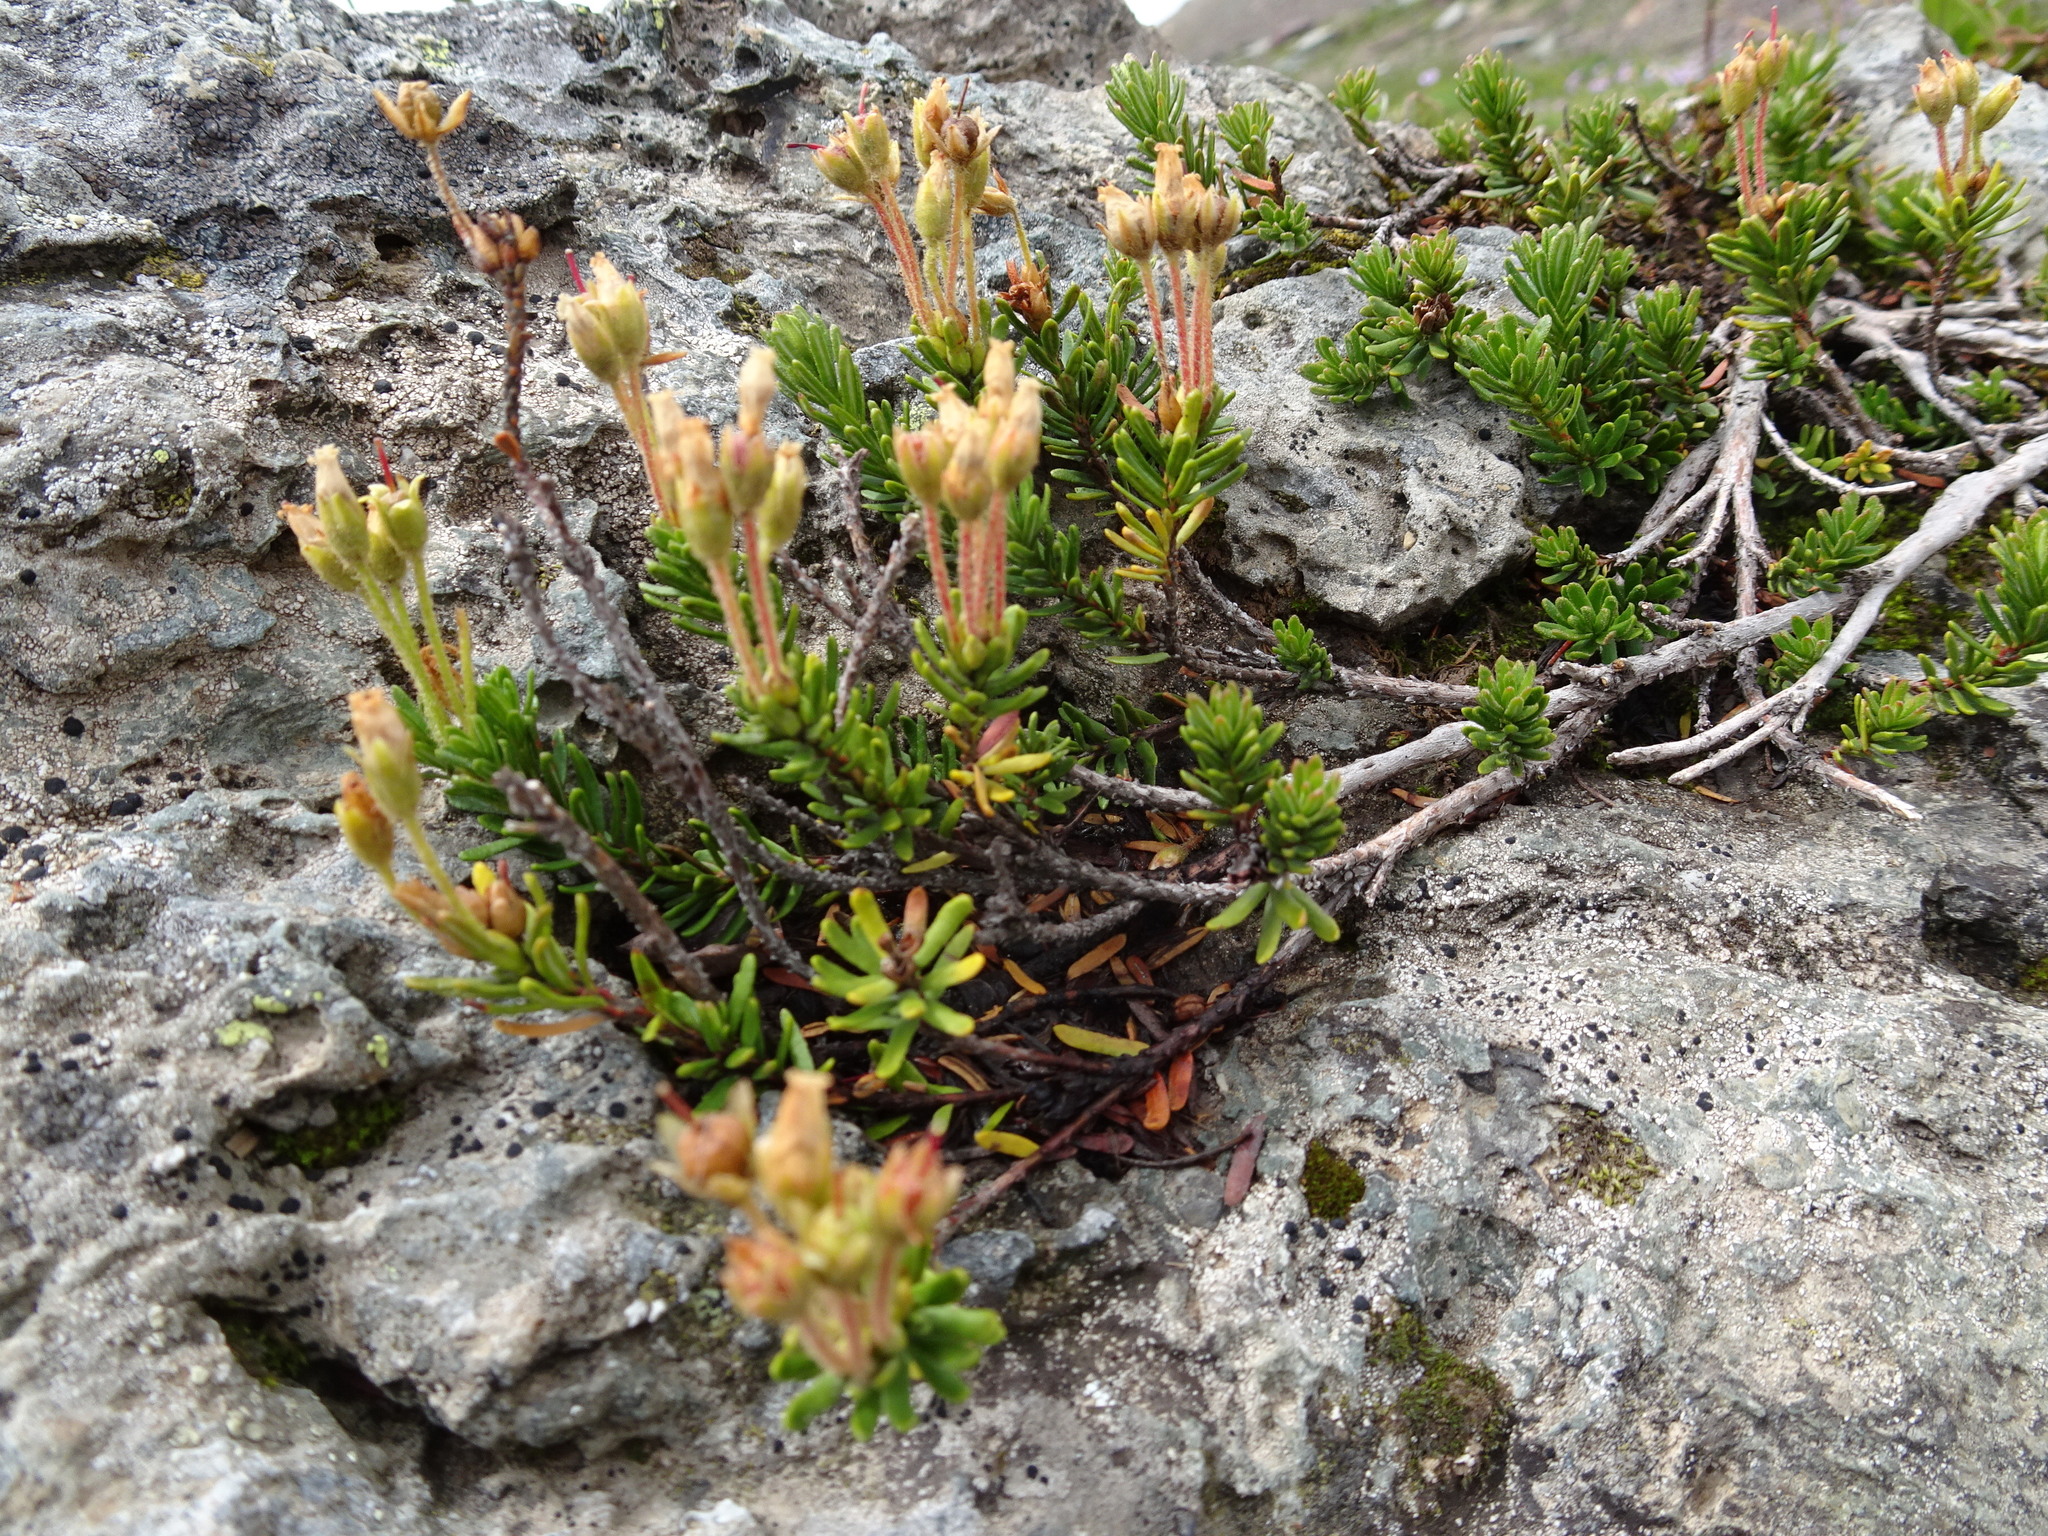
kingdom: Plantae
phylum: Tracheophyta
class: Magnoliopsida
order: Ericales
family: Ericaceae
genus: Phyllodoce
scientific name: Phyllodoce glanduliflora
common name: Cream mountain heather
